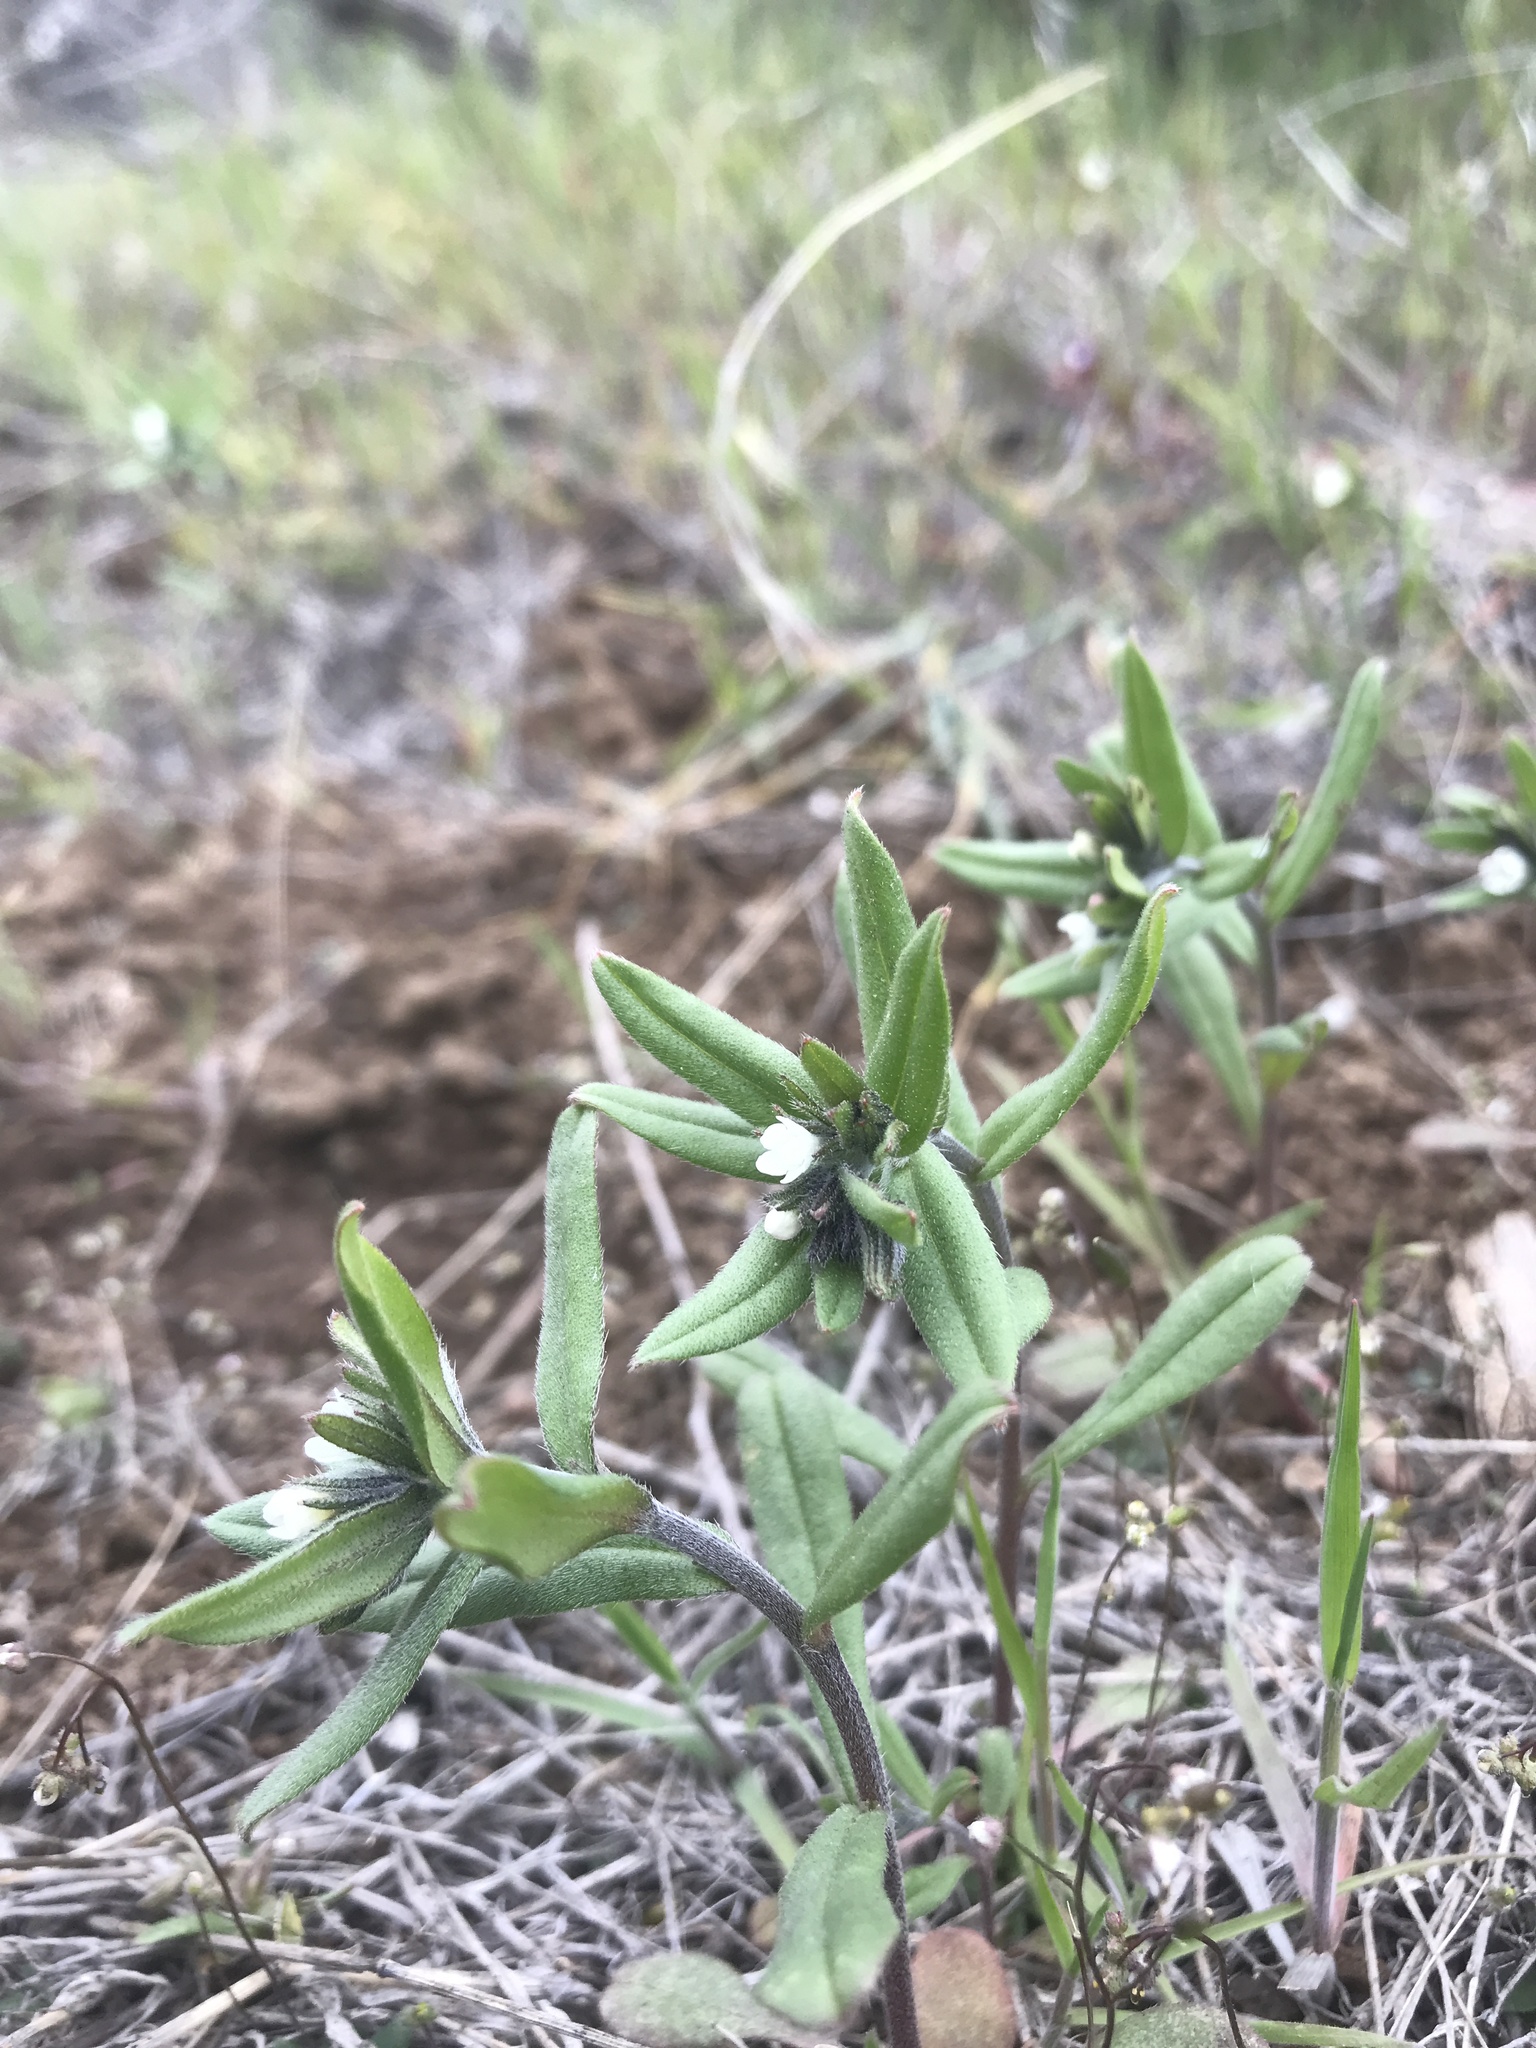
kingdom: Plantae
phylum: Tracheophyta
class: Magnoliopsida
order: Boraginales
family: Boraginaceae
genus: Buglossoides
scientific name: Buglossoides arvensis
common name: Corn gromwell
